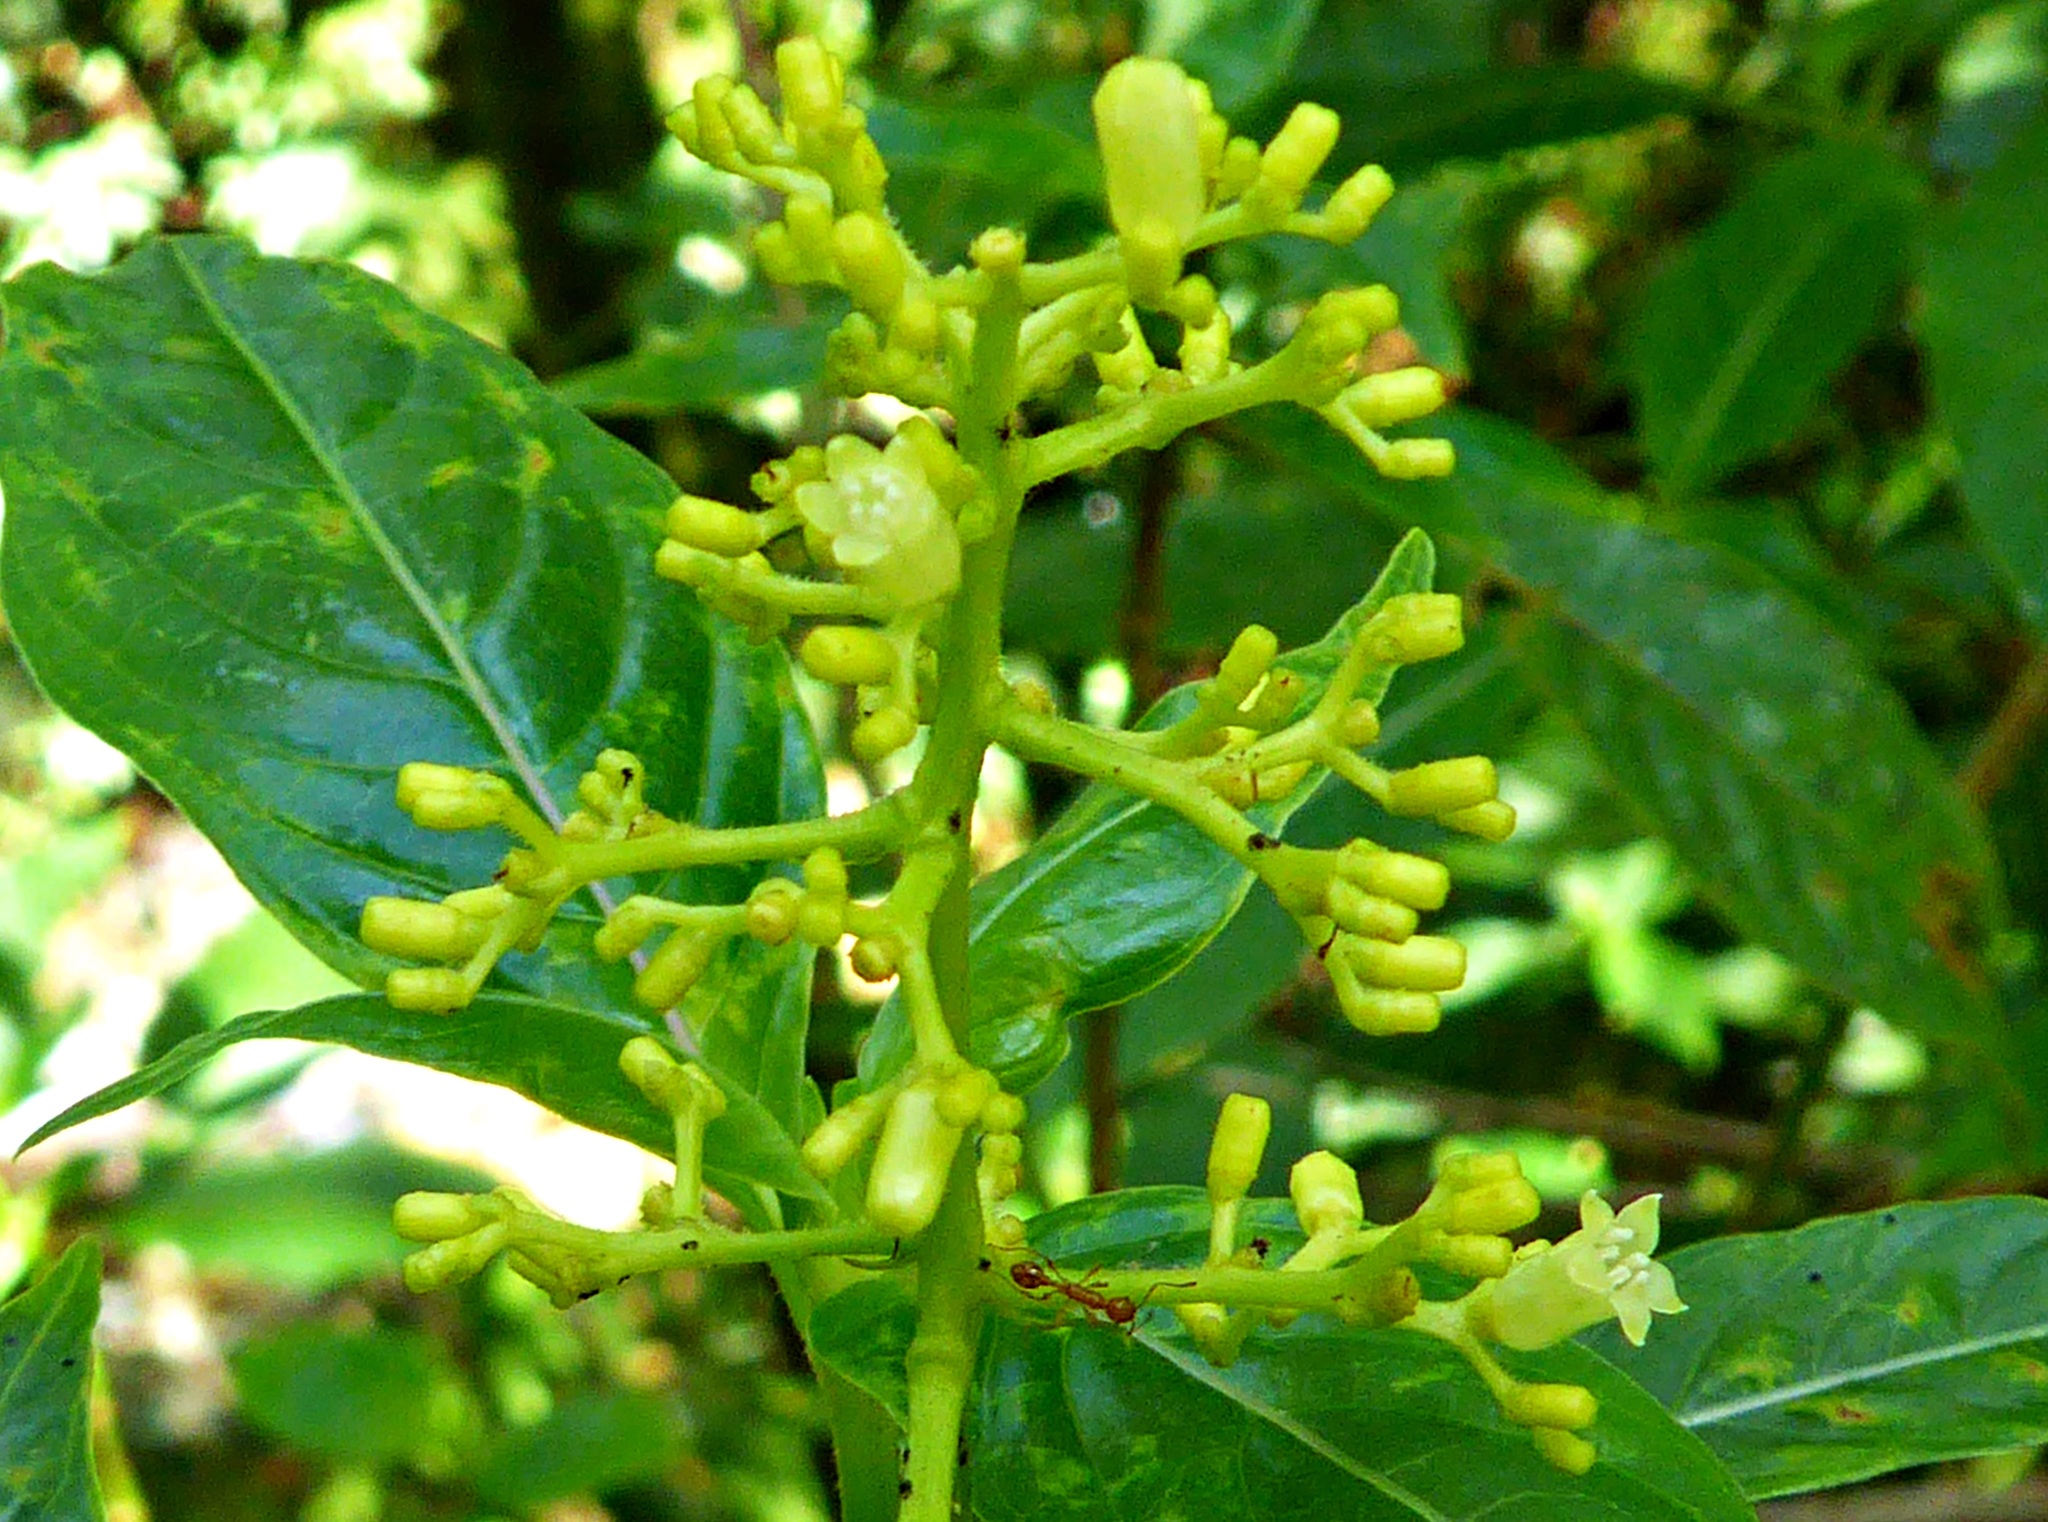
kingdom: Plantae
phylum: Tracheophyta
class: Magnoliopsida
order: Gentianales
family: Rubiaceae
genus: Palicourea
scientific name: Palicourea berteroana
